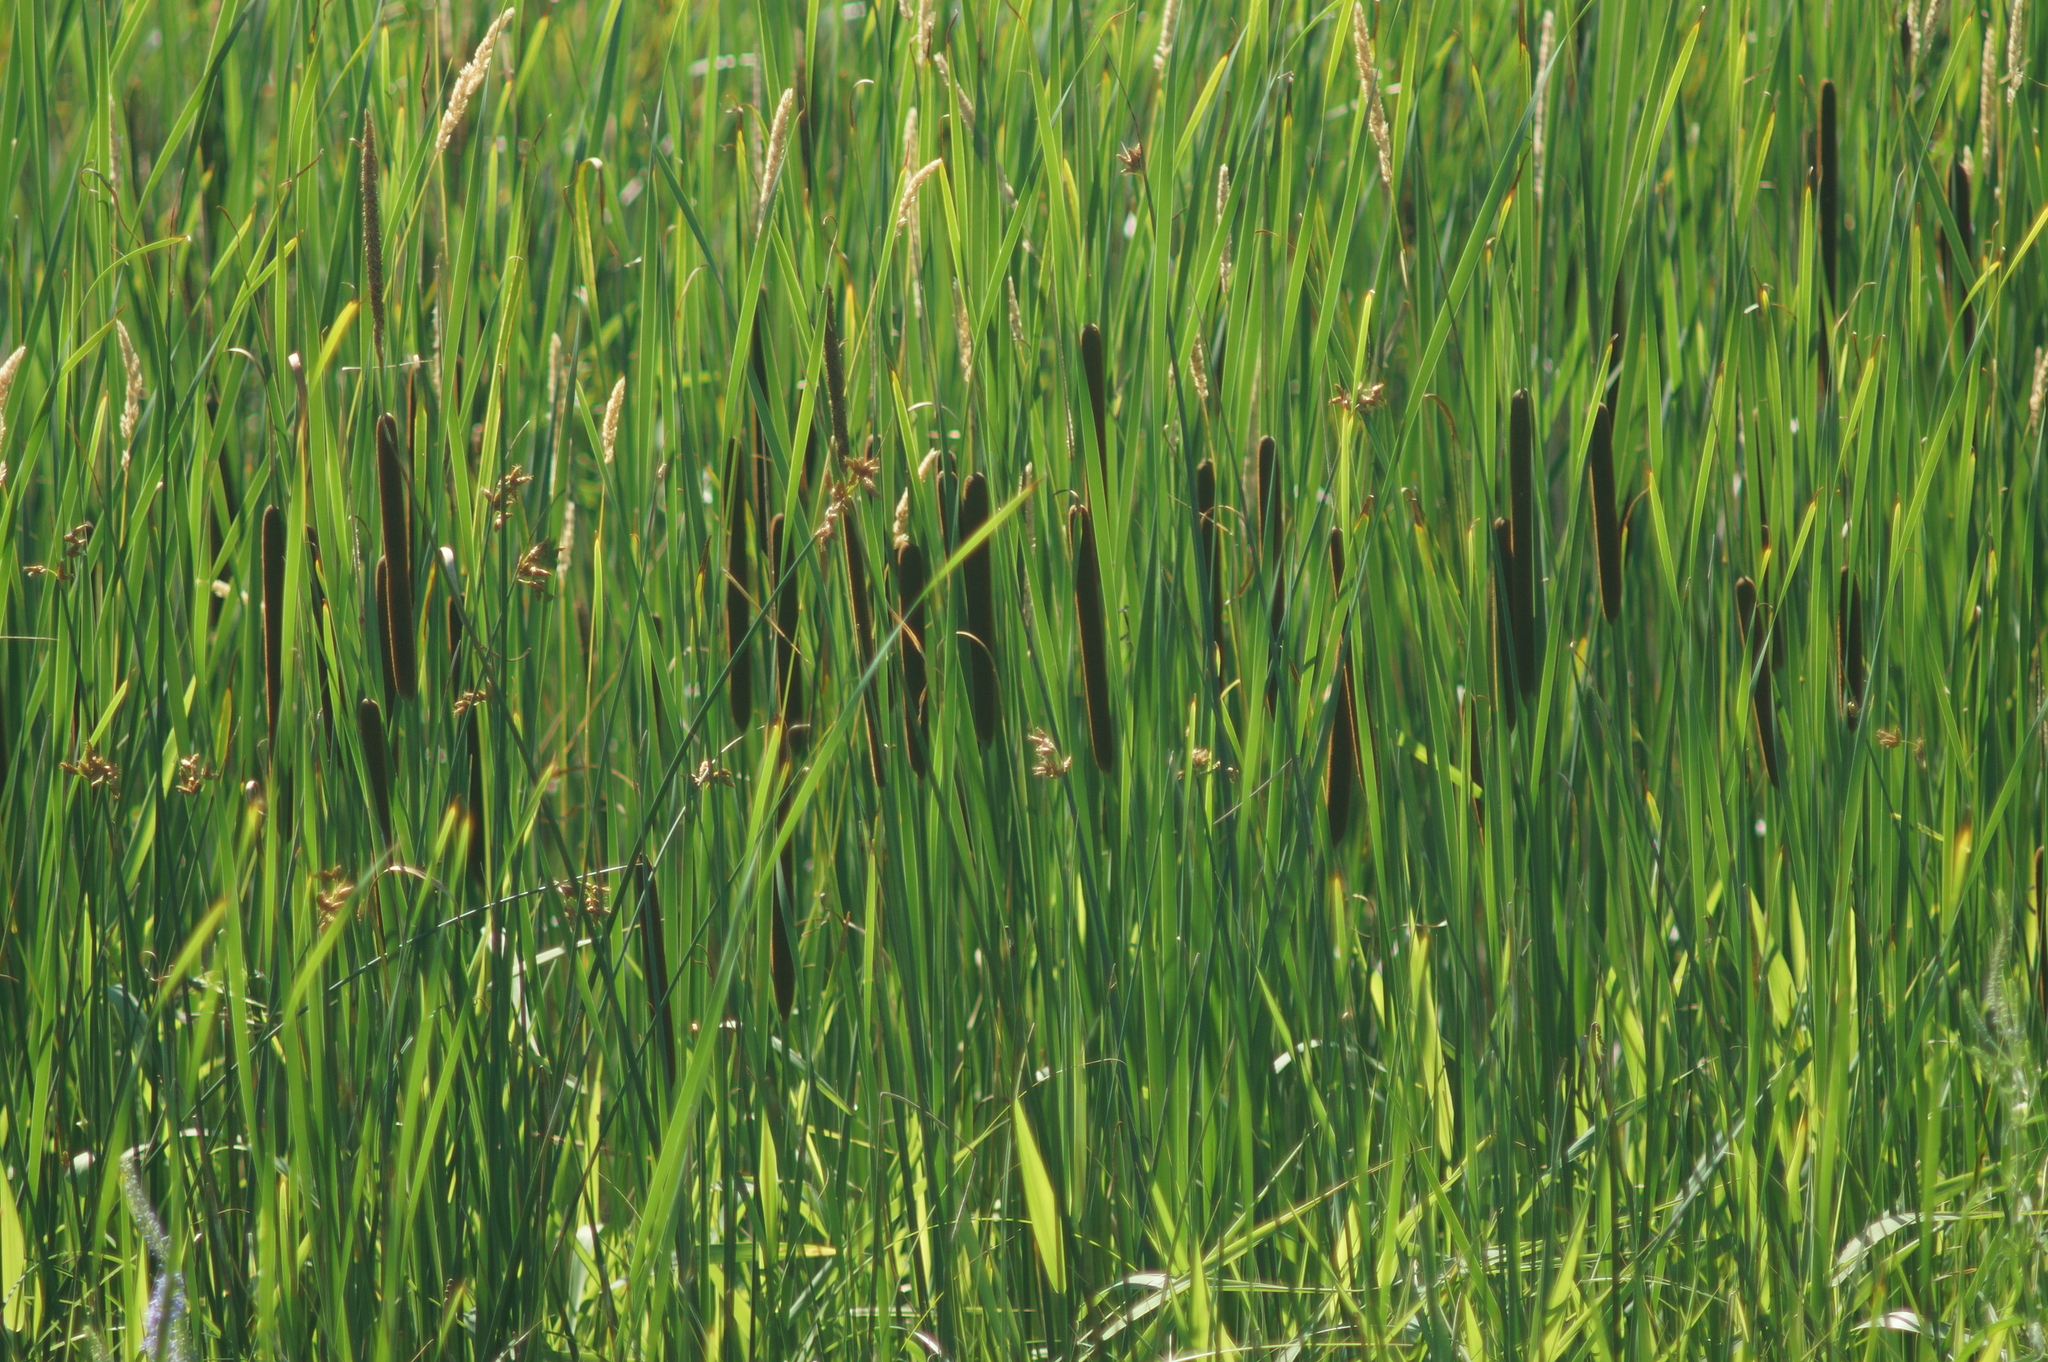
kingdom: Plantae
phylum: Tracheophyta
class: Liliopsida
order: Poales
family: Typhaceae
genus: Typha
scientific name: Typha angustifolia
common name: Lesser bulrush
